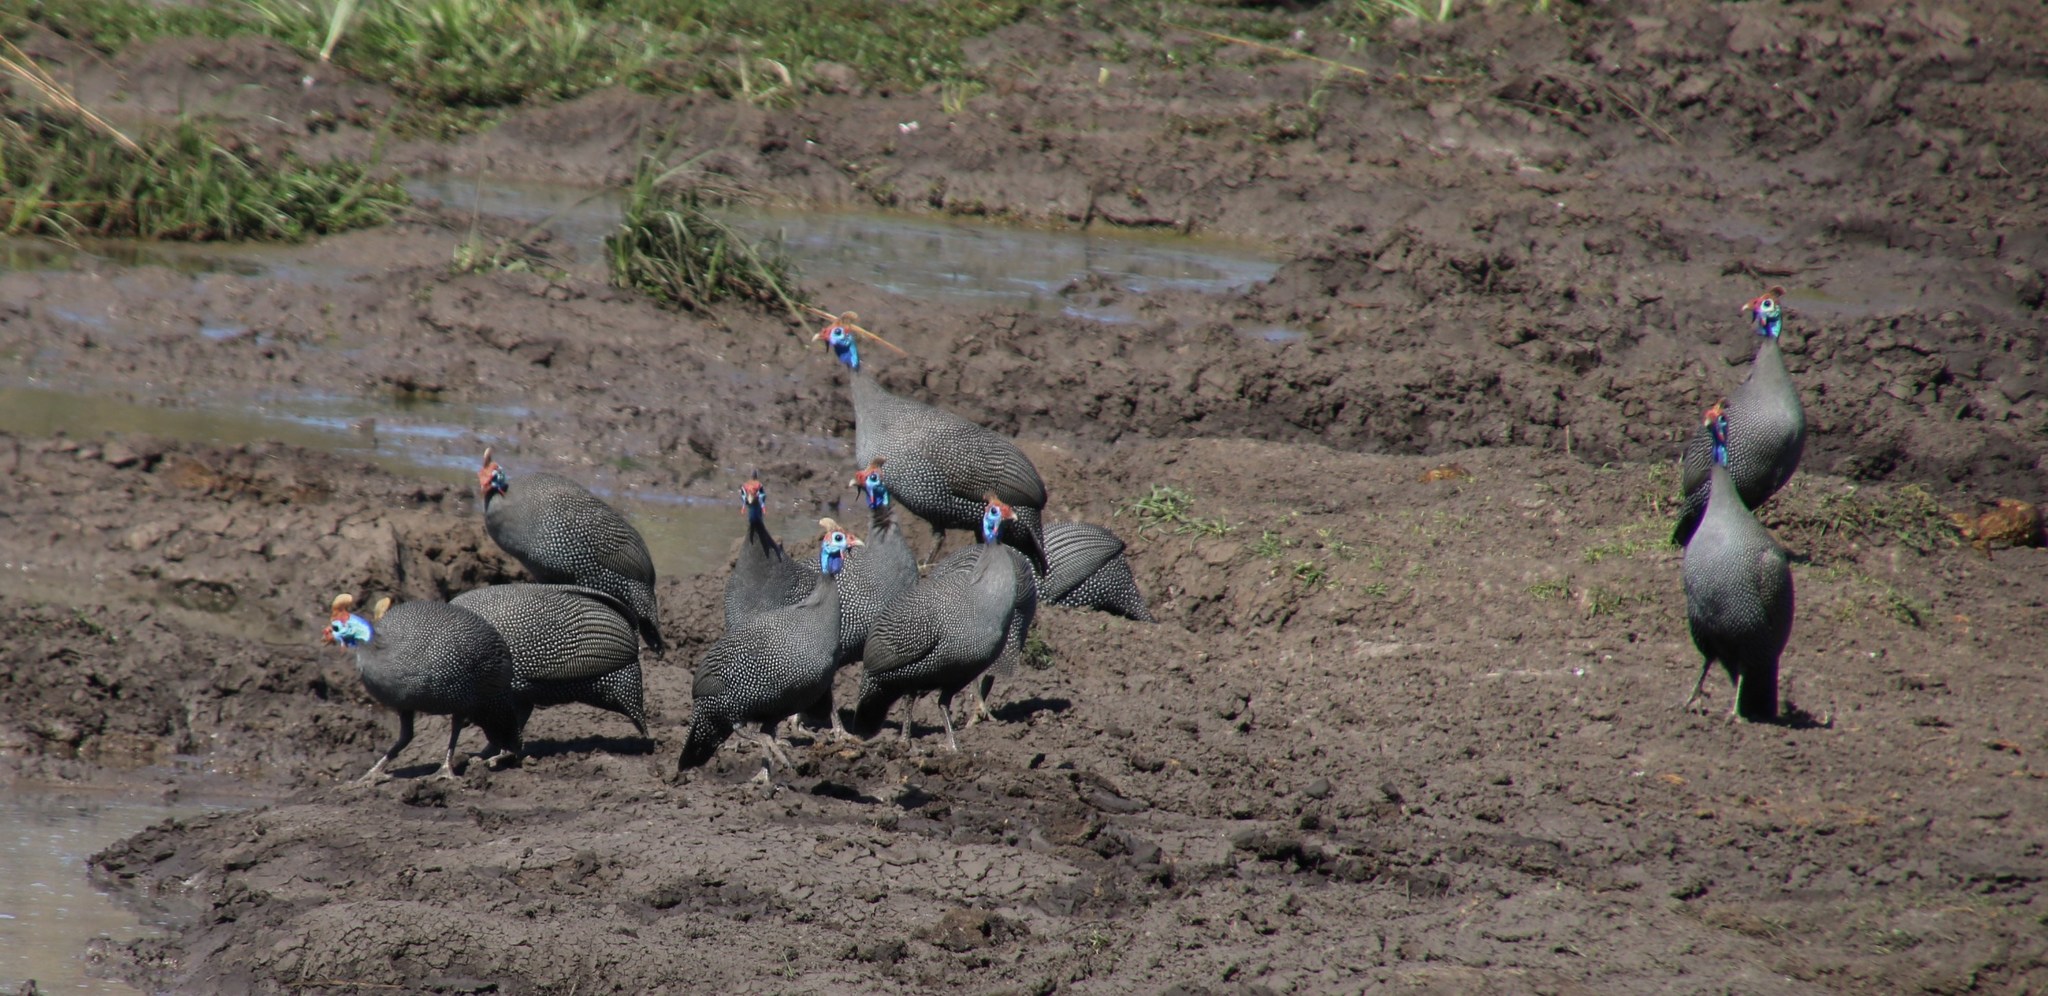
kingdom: Animalia
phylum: Chordata
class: Aves
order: Galliformes
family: Numididae
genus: Numida
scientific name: Numida meleagris
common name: Helmeted guineafowl
